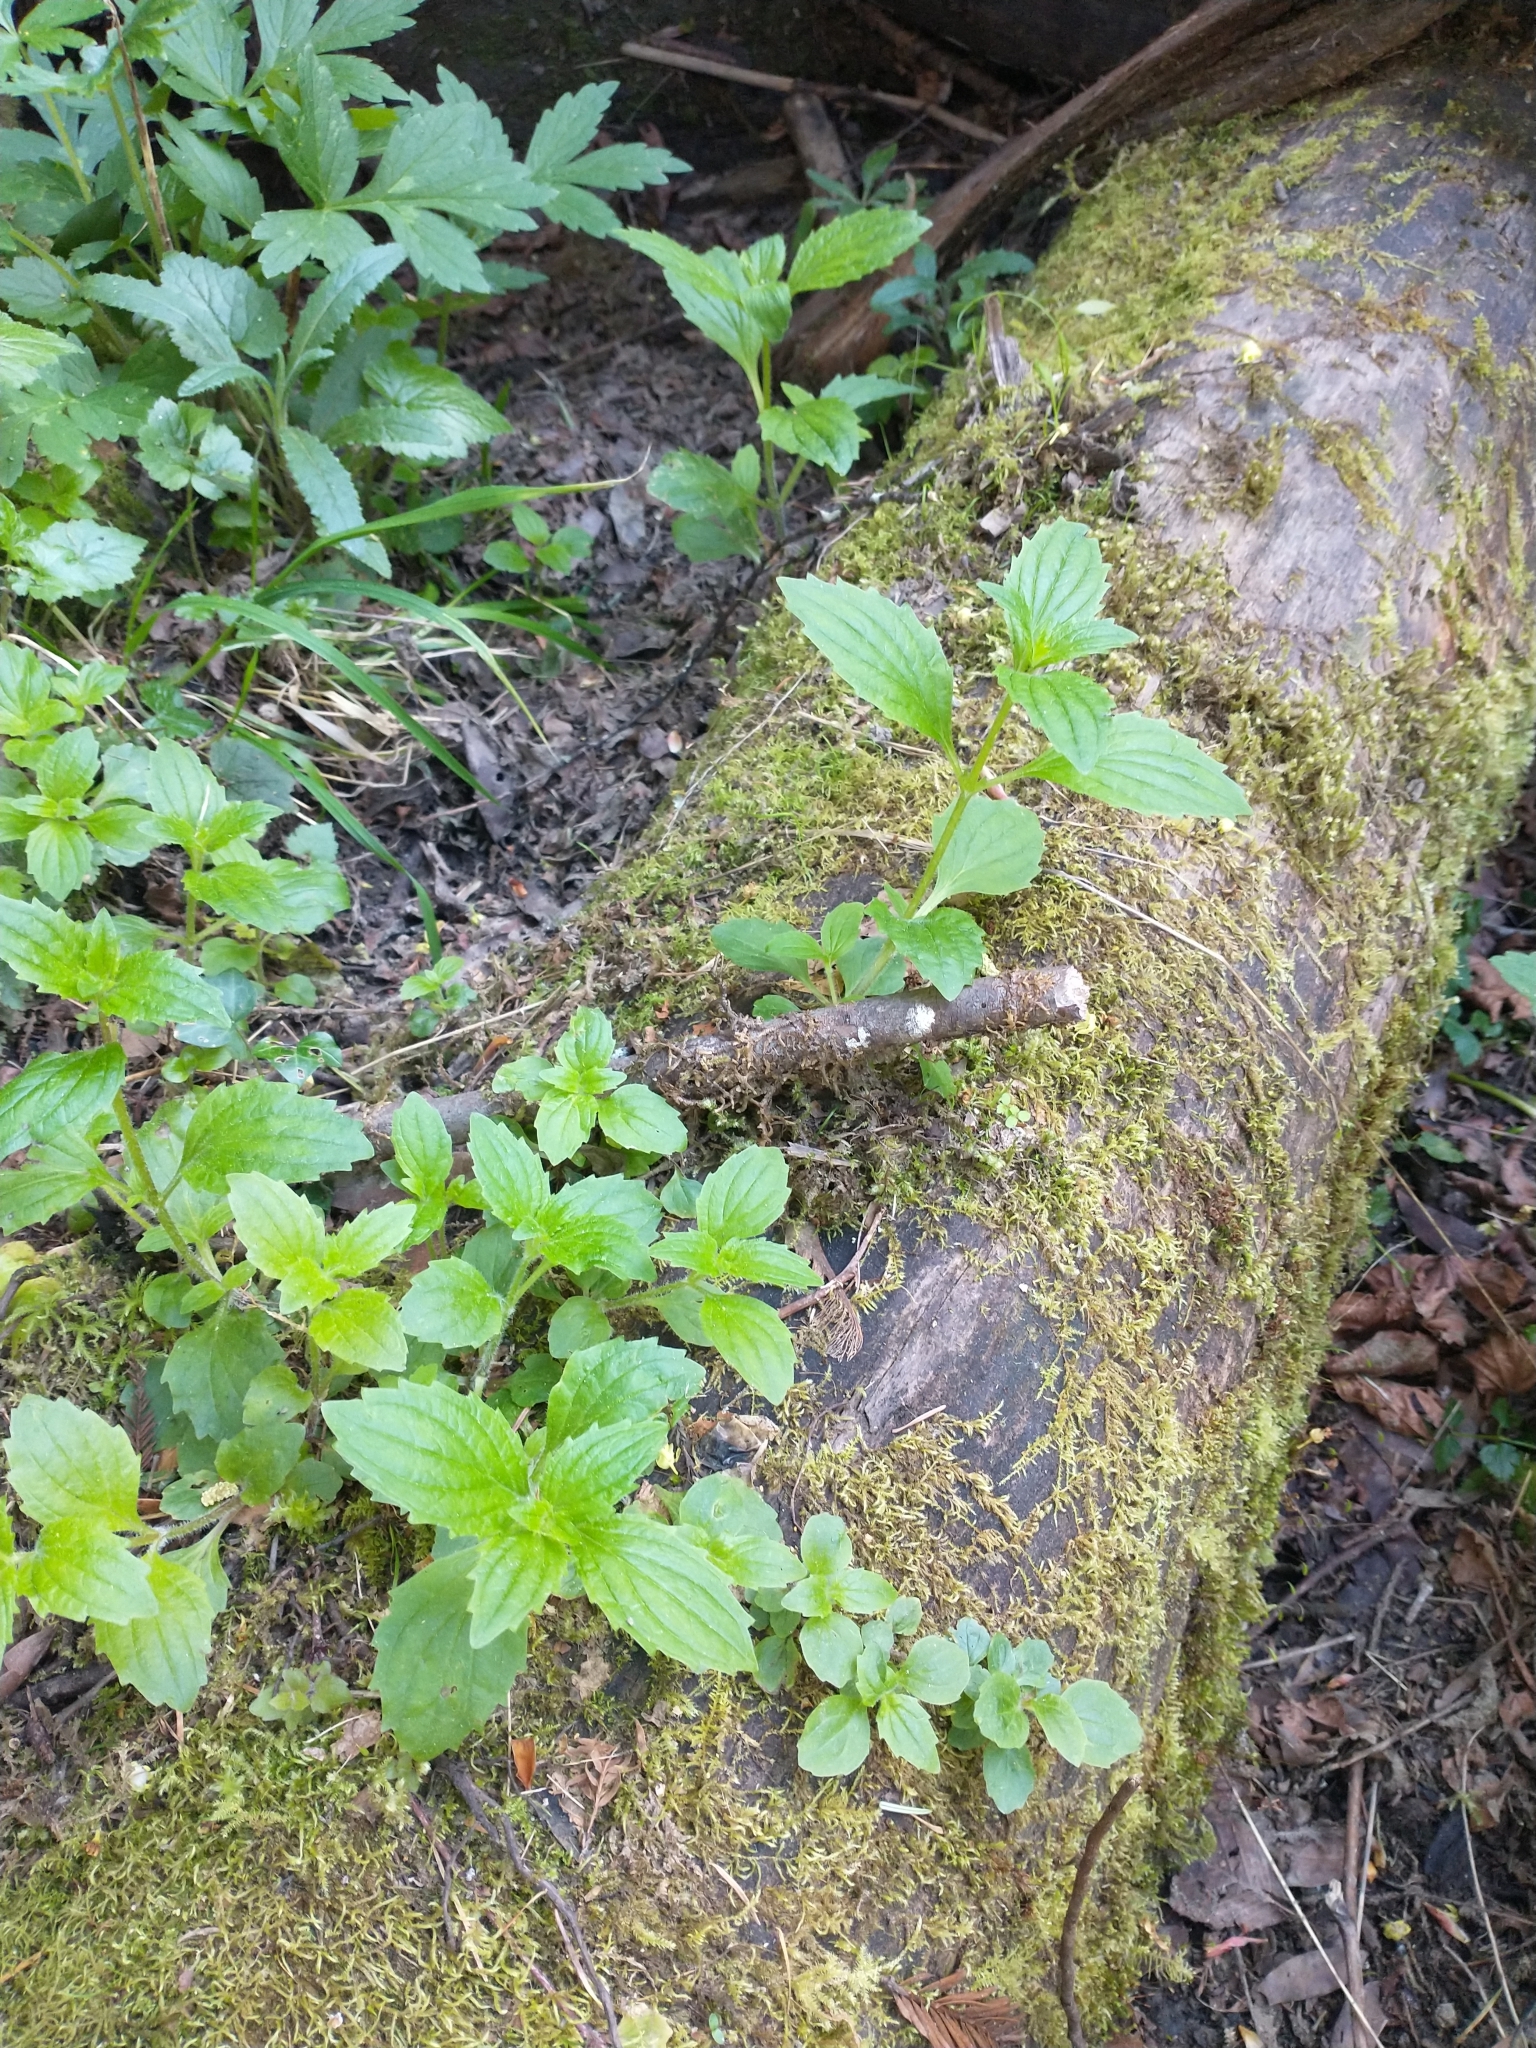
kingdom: Plantae
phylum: Tracheophyta
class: Magnoliopsida
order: Lamiales
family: Phrymaceae
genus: Erythranthe
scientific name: Erythranthe dentata
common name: Coastal monkeyflower
